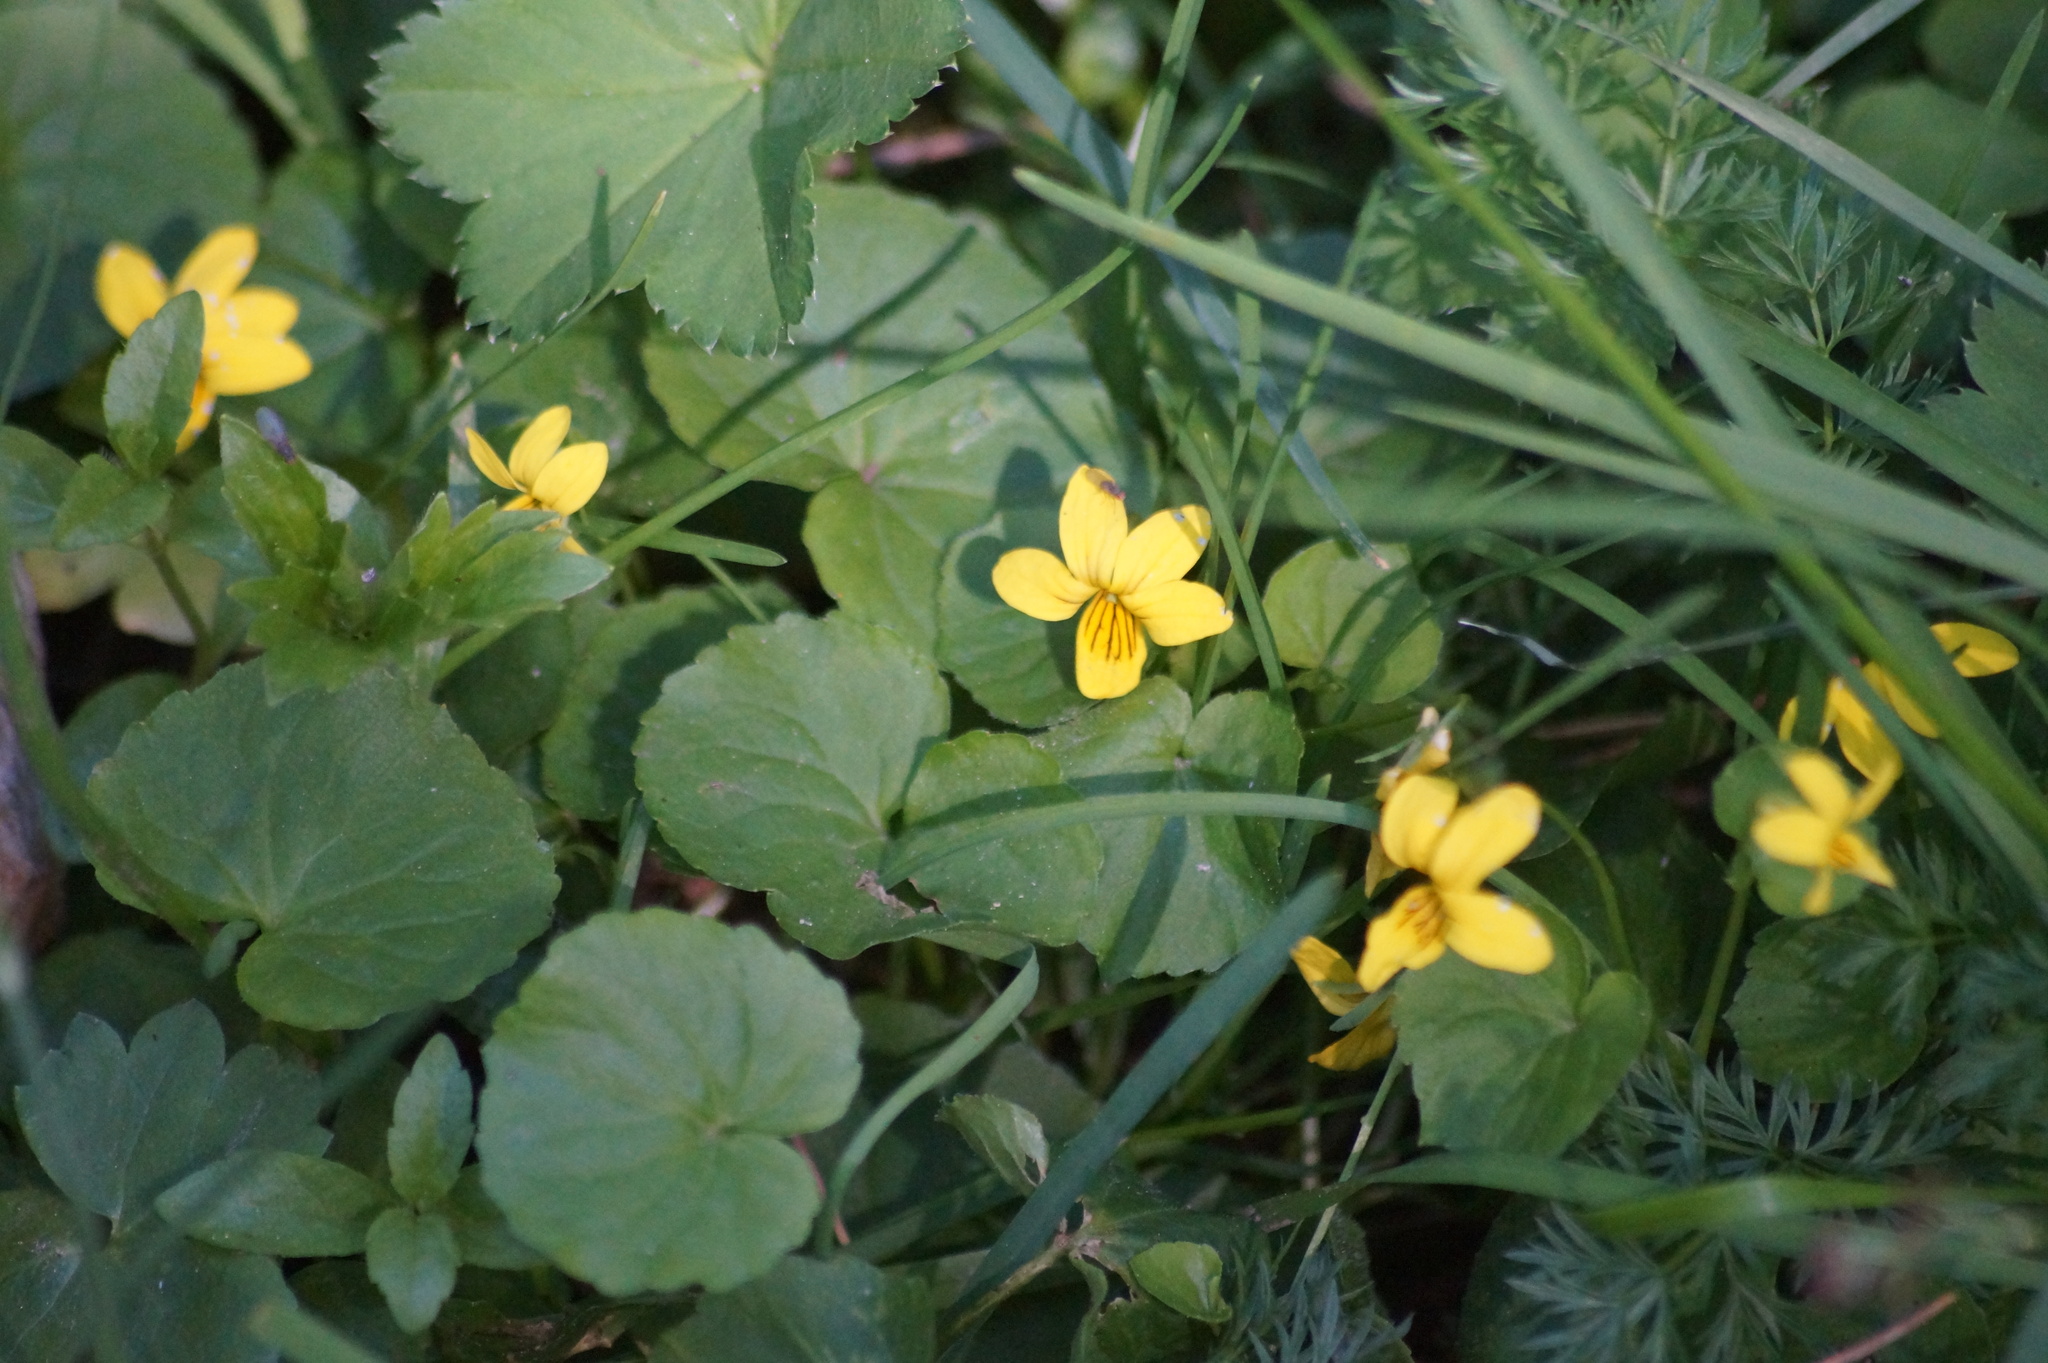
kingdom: Plantae
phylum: Tracheophyta
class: Magnoliopsida
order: Malpighiales
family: Violaceae
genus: Viola
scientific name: Viola biflora
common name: Alpine yellow violet
